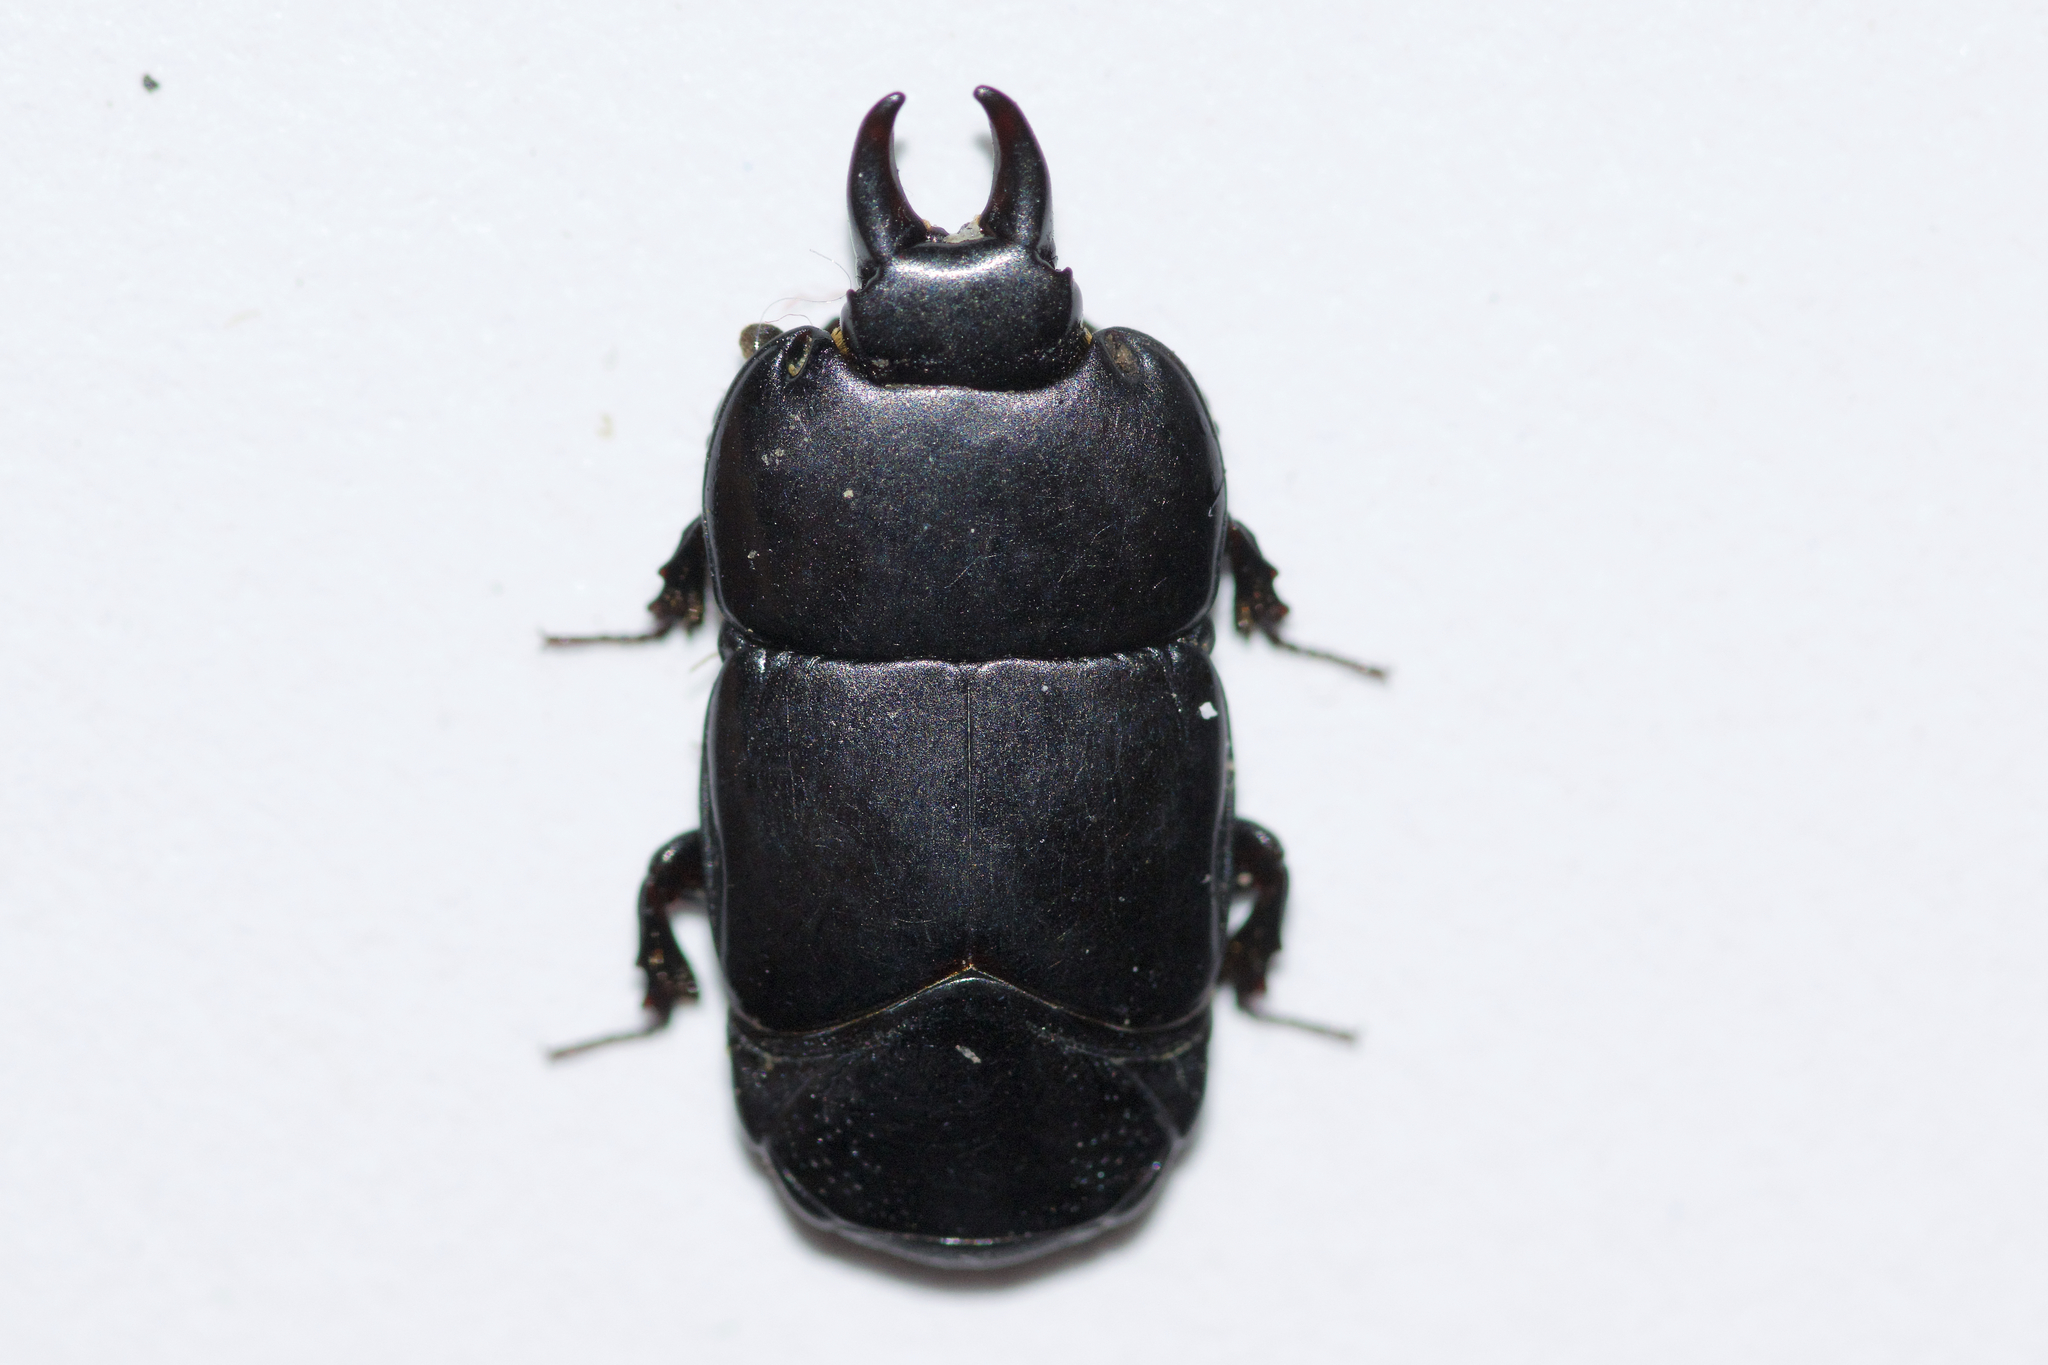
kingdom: Animalia
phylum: Arthropoda
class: Insecta
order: Coleoptera
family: Histeridae
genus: Hololepta
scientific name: Hololepta aequalis
